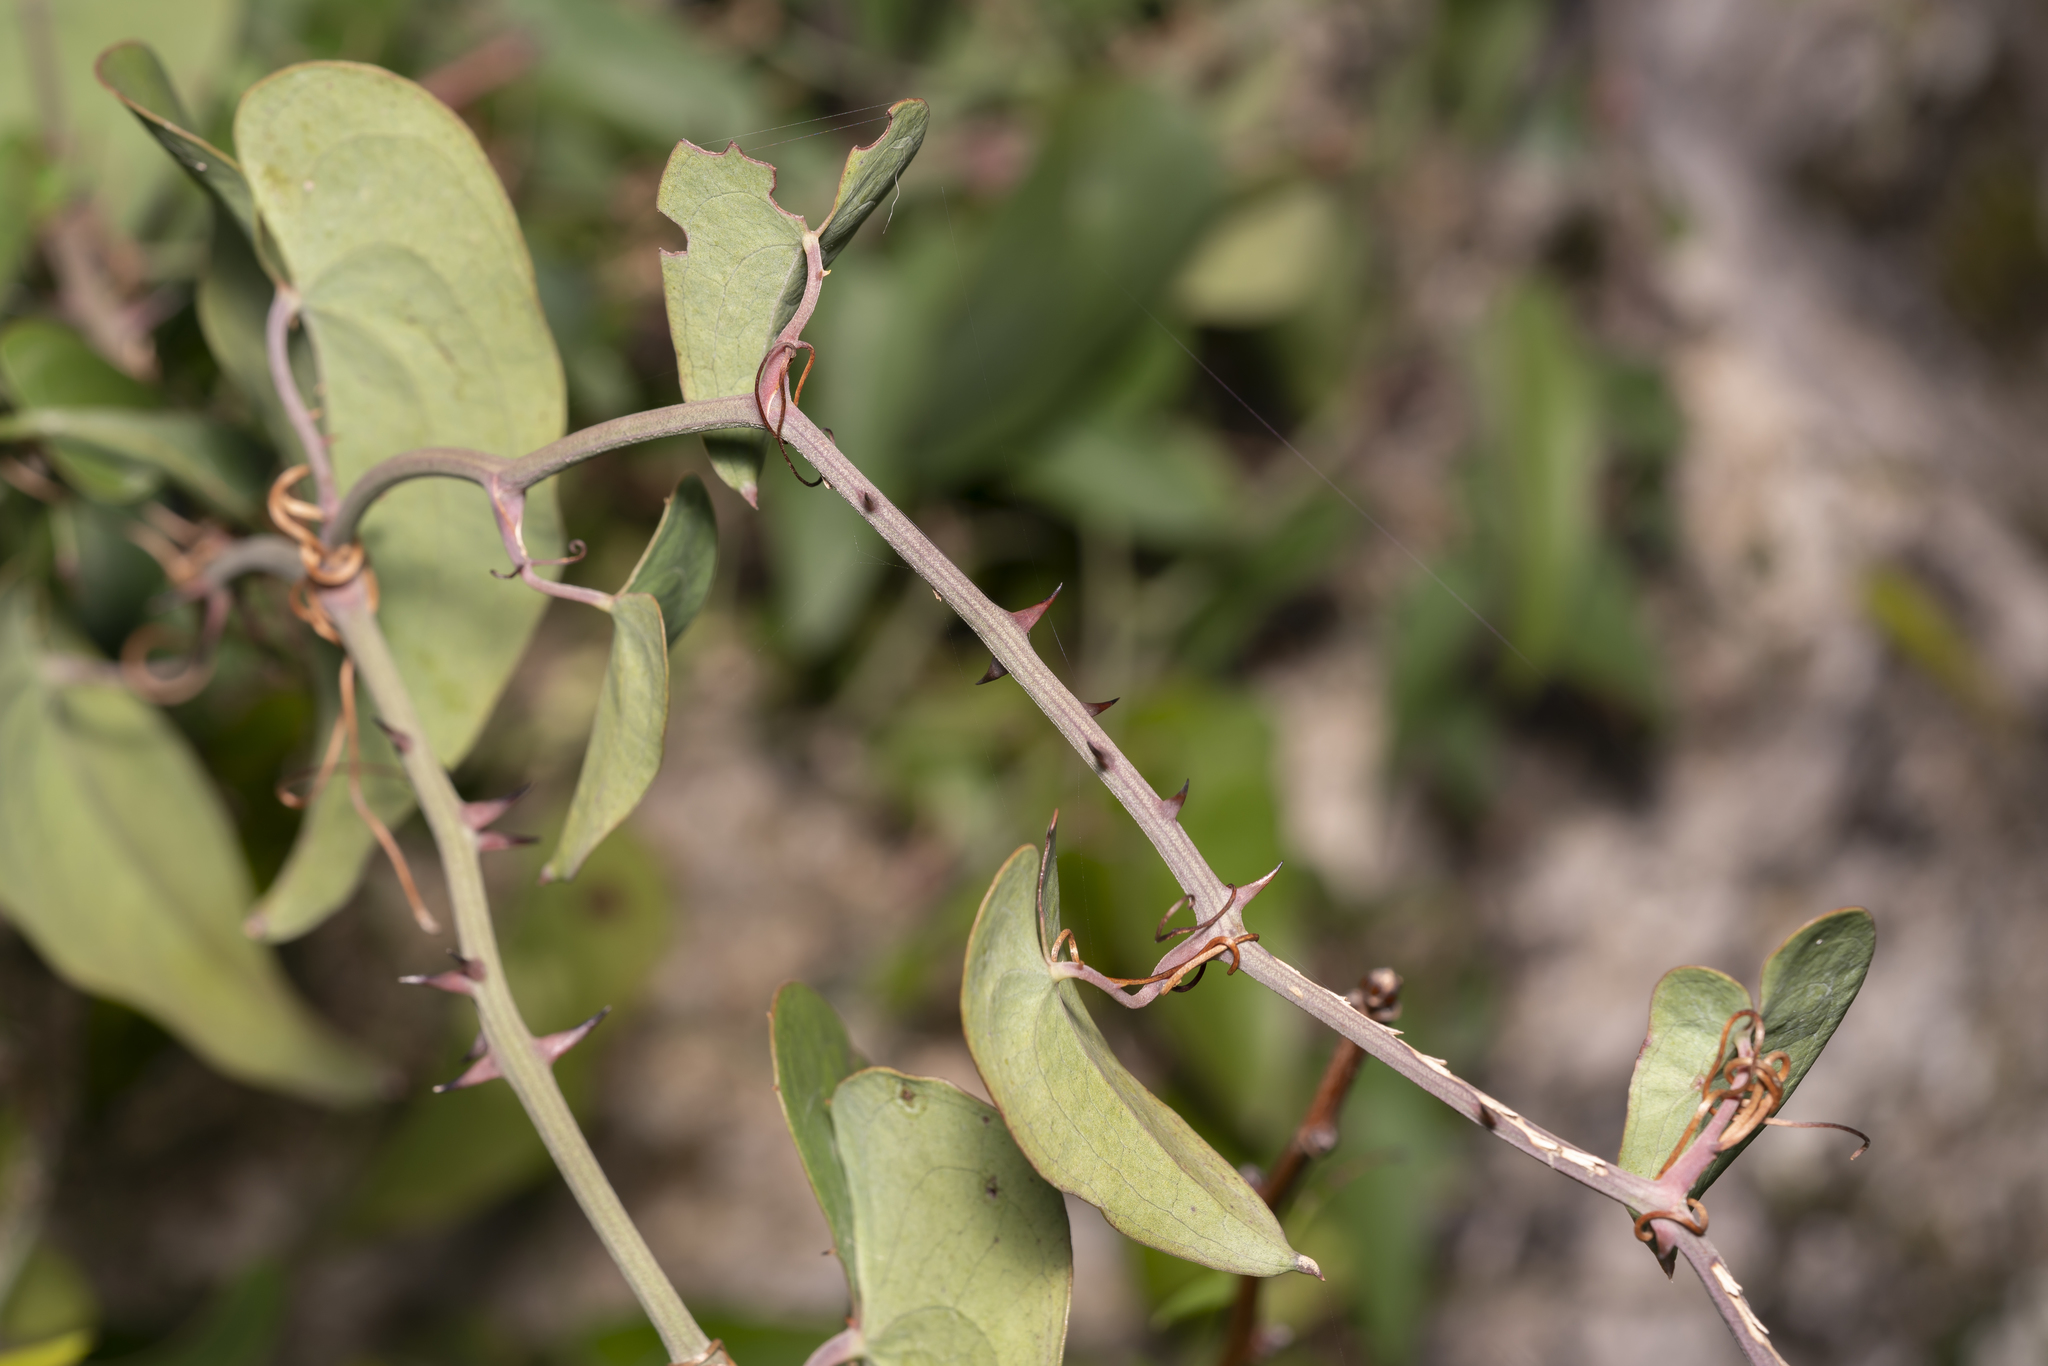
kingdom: Plantae
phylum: Tracheophyta
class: Liliopsida
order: Liliales
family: Smilacaceae
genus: Smilax
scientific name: Smilax aspera
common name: Common smilax
